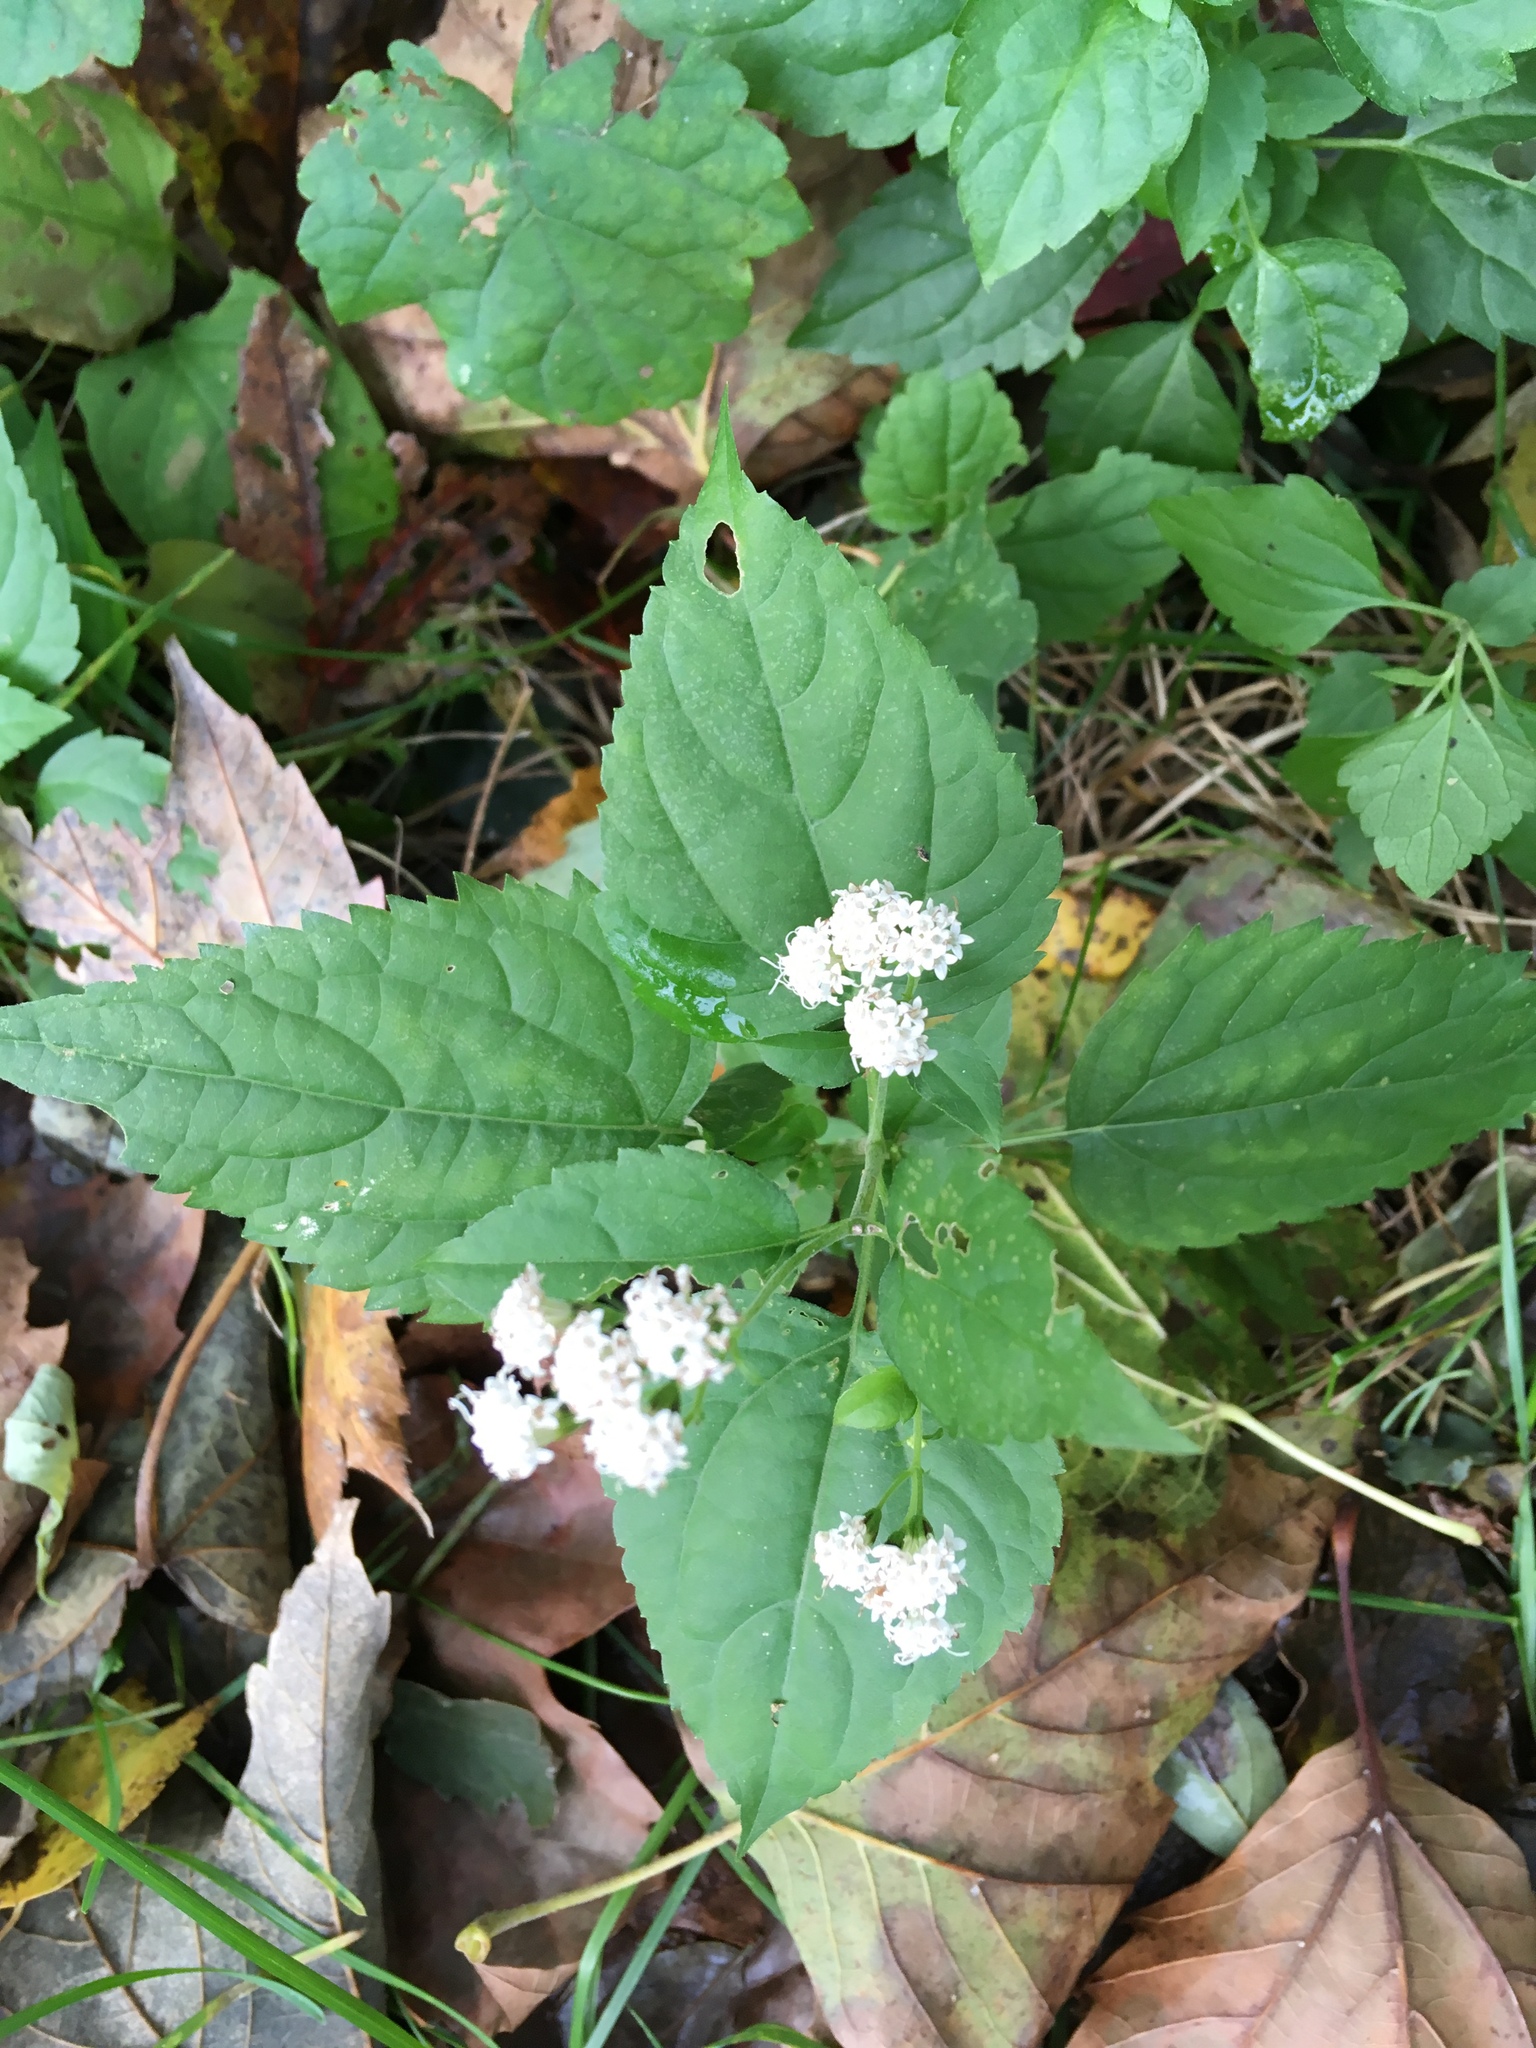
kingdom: Plantae
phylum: Tracheophyta
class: Magnoliopsida
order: Asterales
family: Asteraceae
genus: Ageratina
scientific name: Ageratina altissima
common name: White snakeroot
